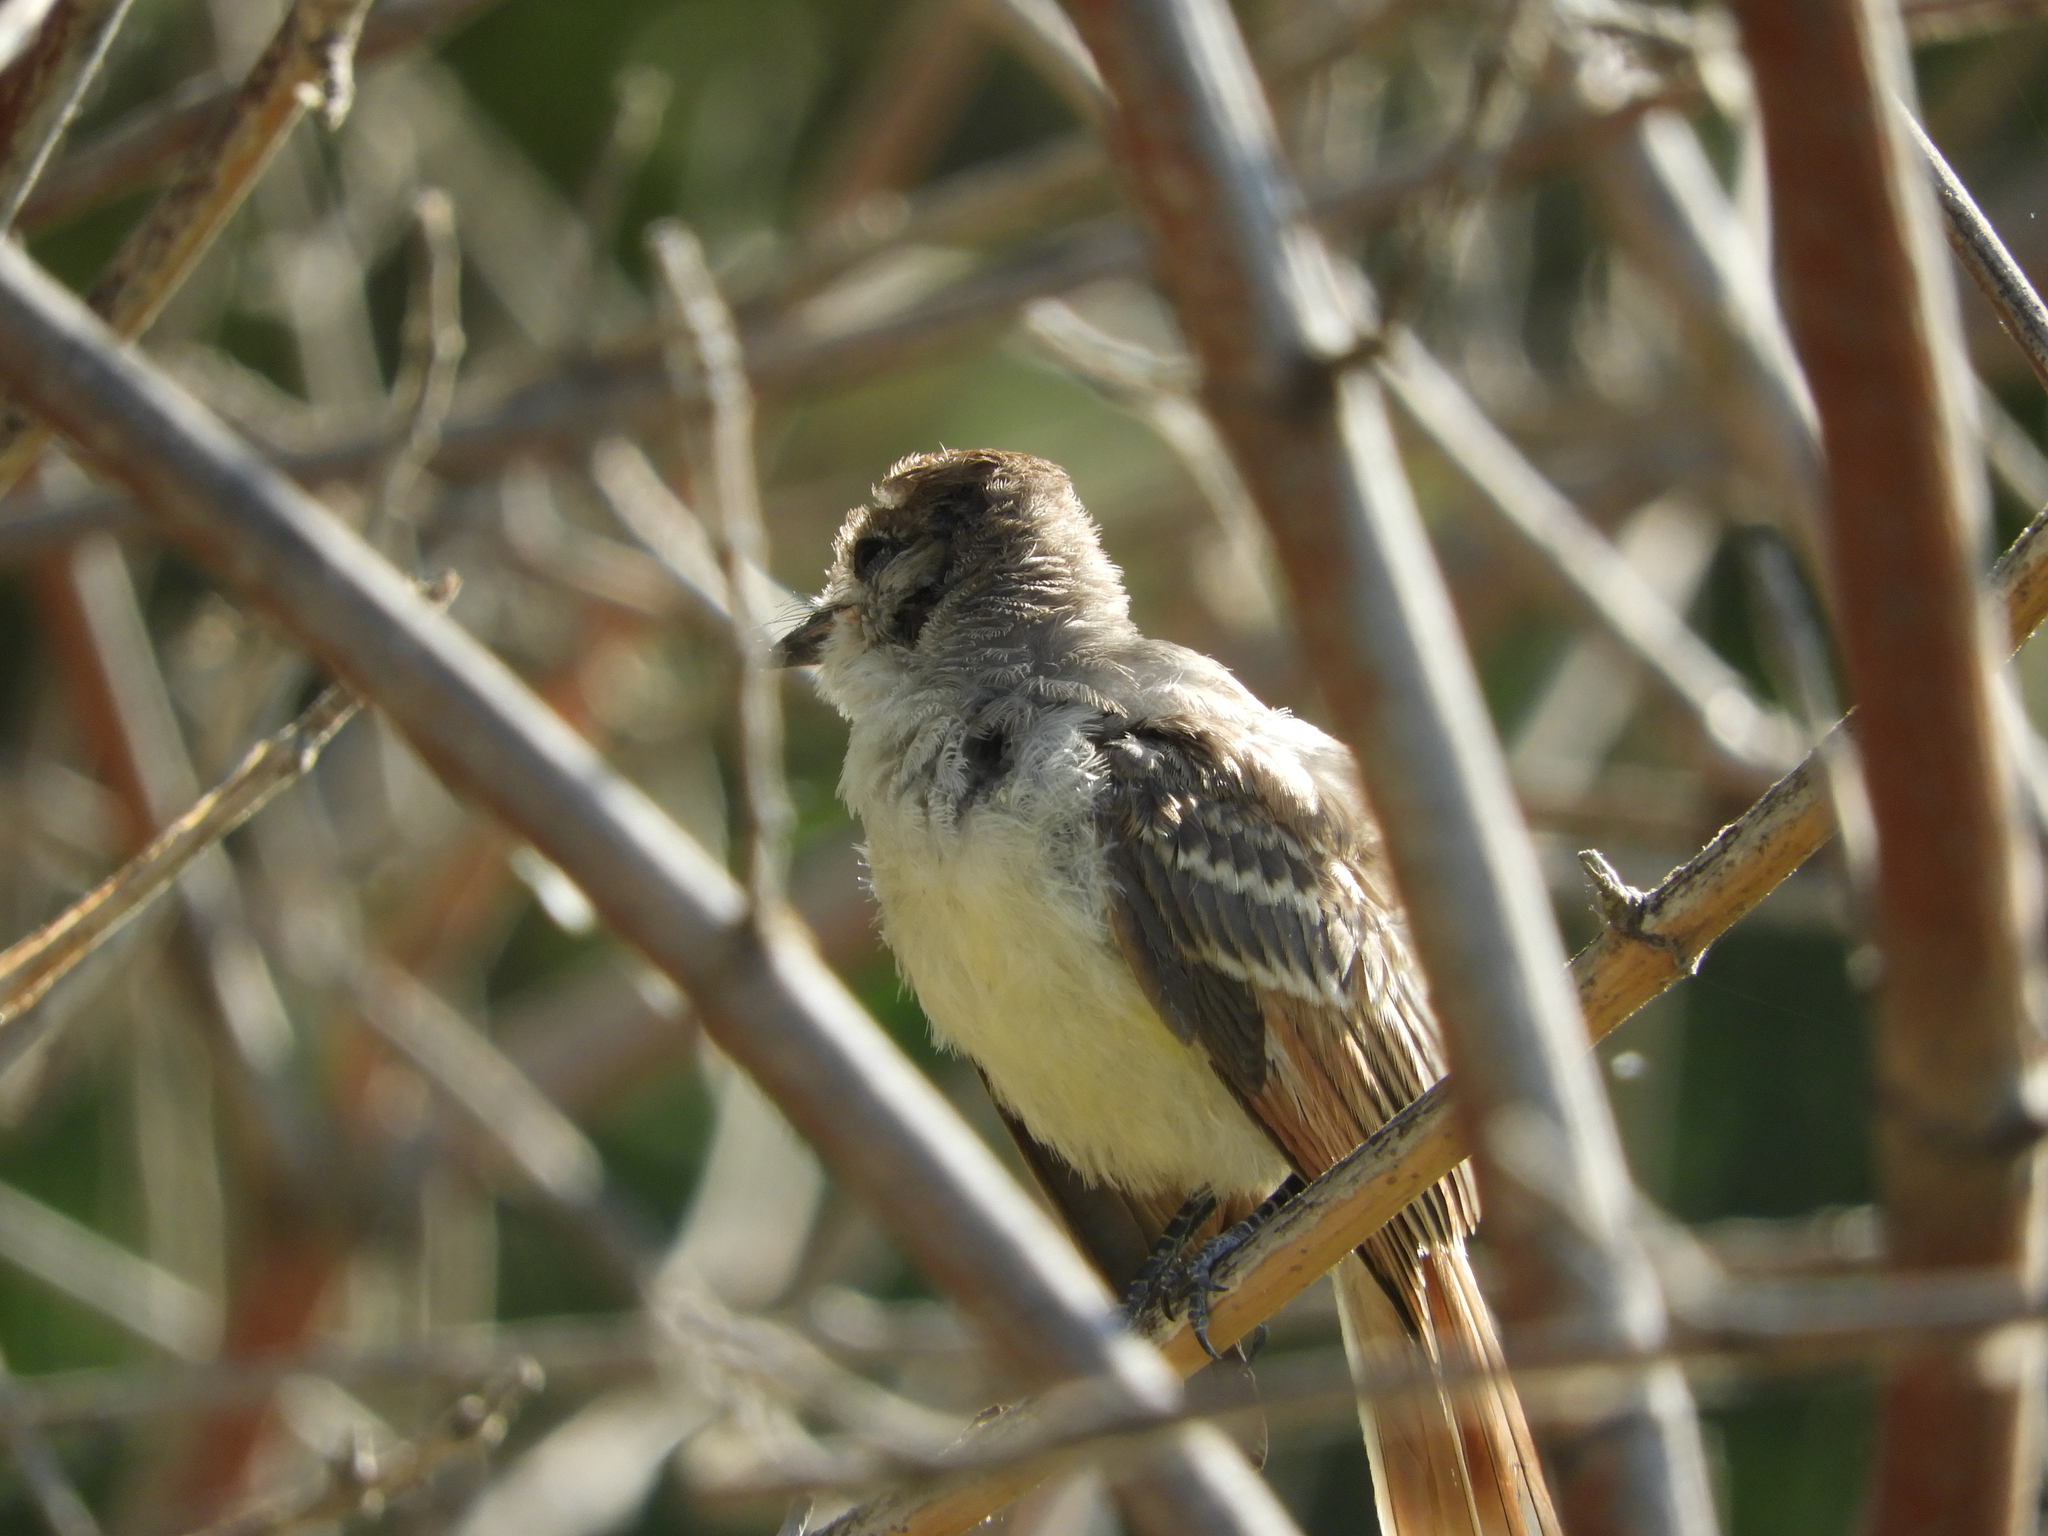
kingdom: Animalia
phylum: Chordata
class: Aves
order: Passeriformes
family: Tyrannidae
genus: Myiarchus
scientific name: Myiarchus cinerascens
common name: Ash-throated flycatcher
